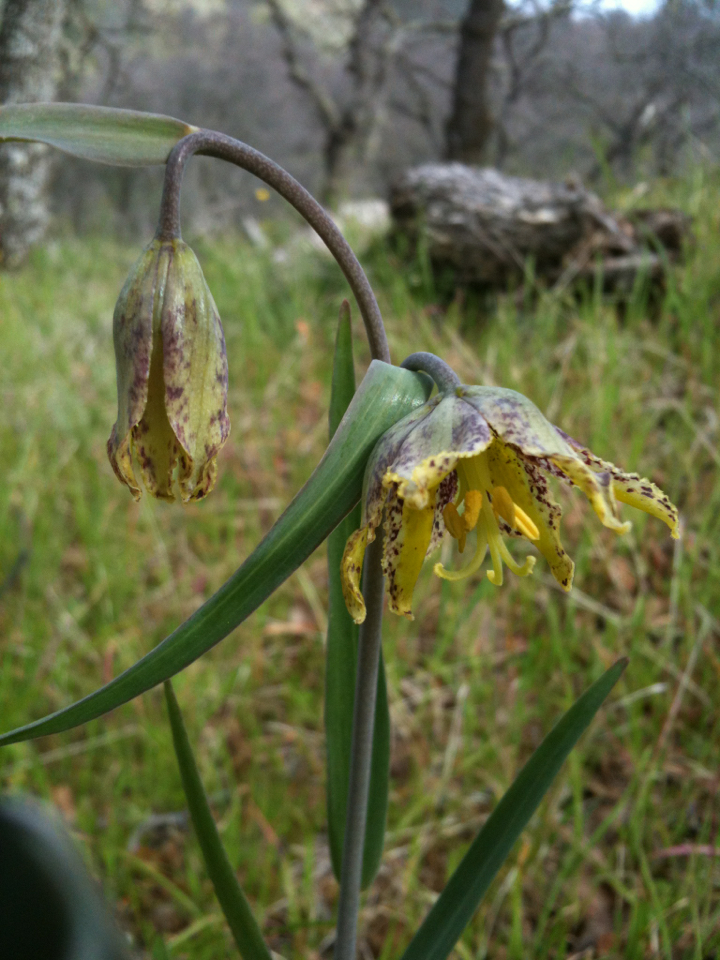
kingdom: Plantae
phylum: Tracheophyta
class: Liliopsida
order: Liliales
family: Liliaceae
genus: Fritillaria
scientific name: Fritillaria affinis
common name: Ojai fritillary
